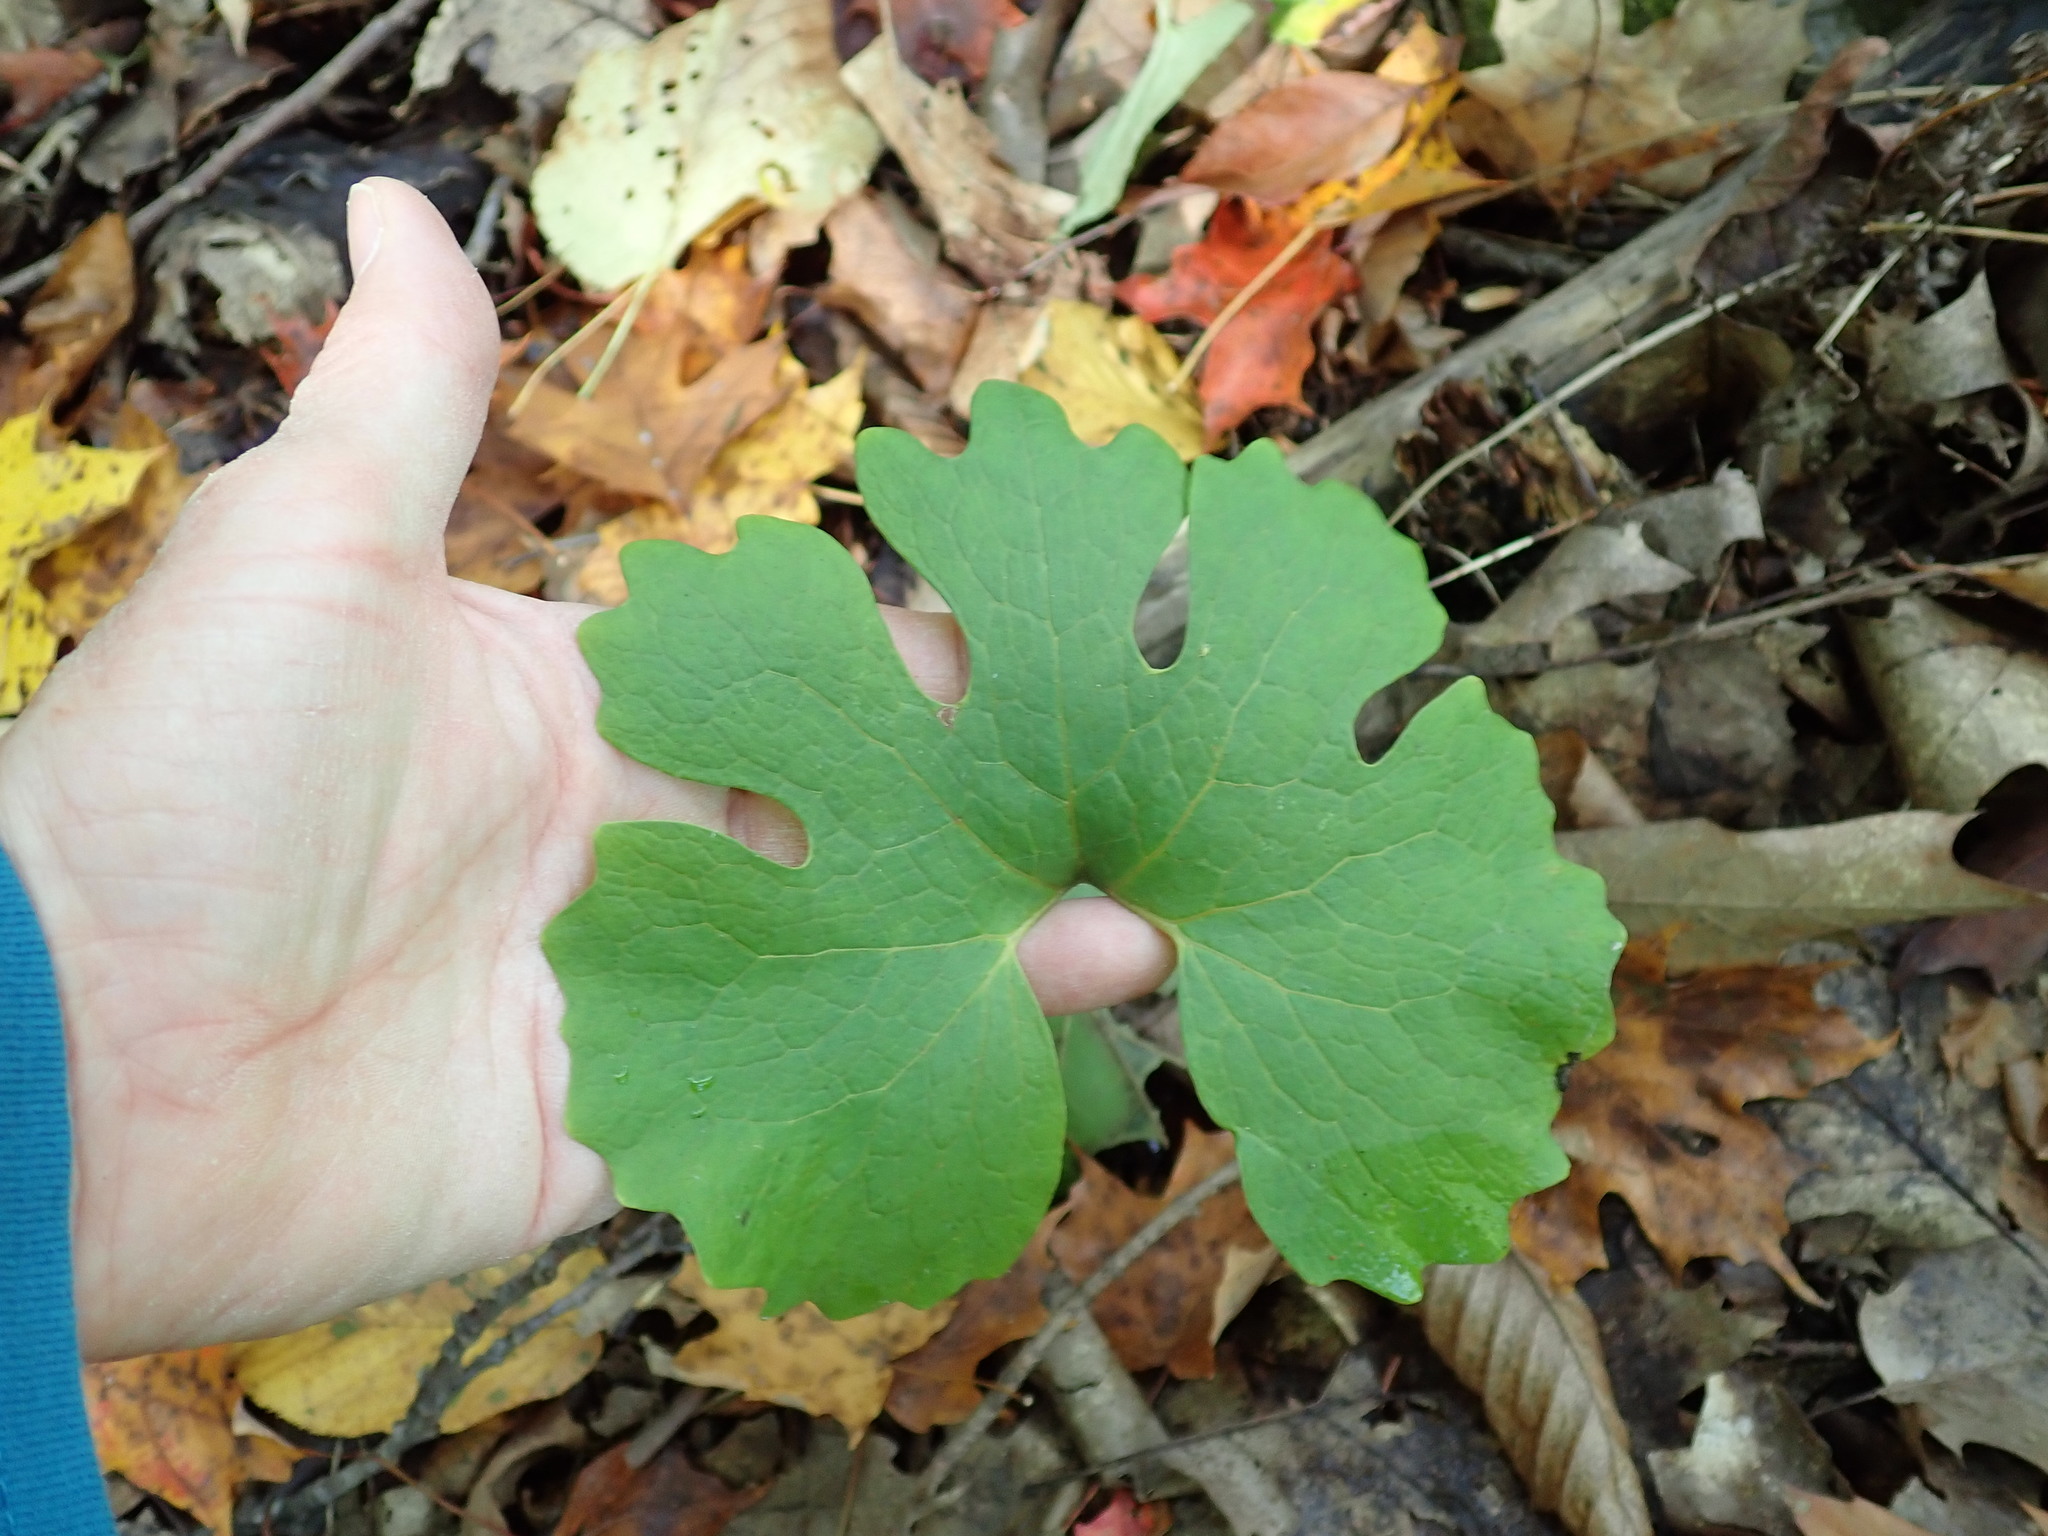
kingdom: Plantae
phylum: Tracheophyta
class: Magnoliopsida
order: Ranunculales
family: Papaveraceae
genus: Sanguinaria
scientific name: Sanguinaria canadensis
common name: Bloodroot
